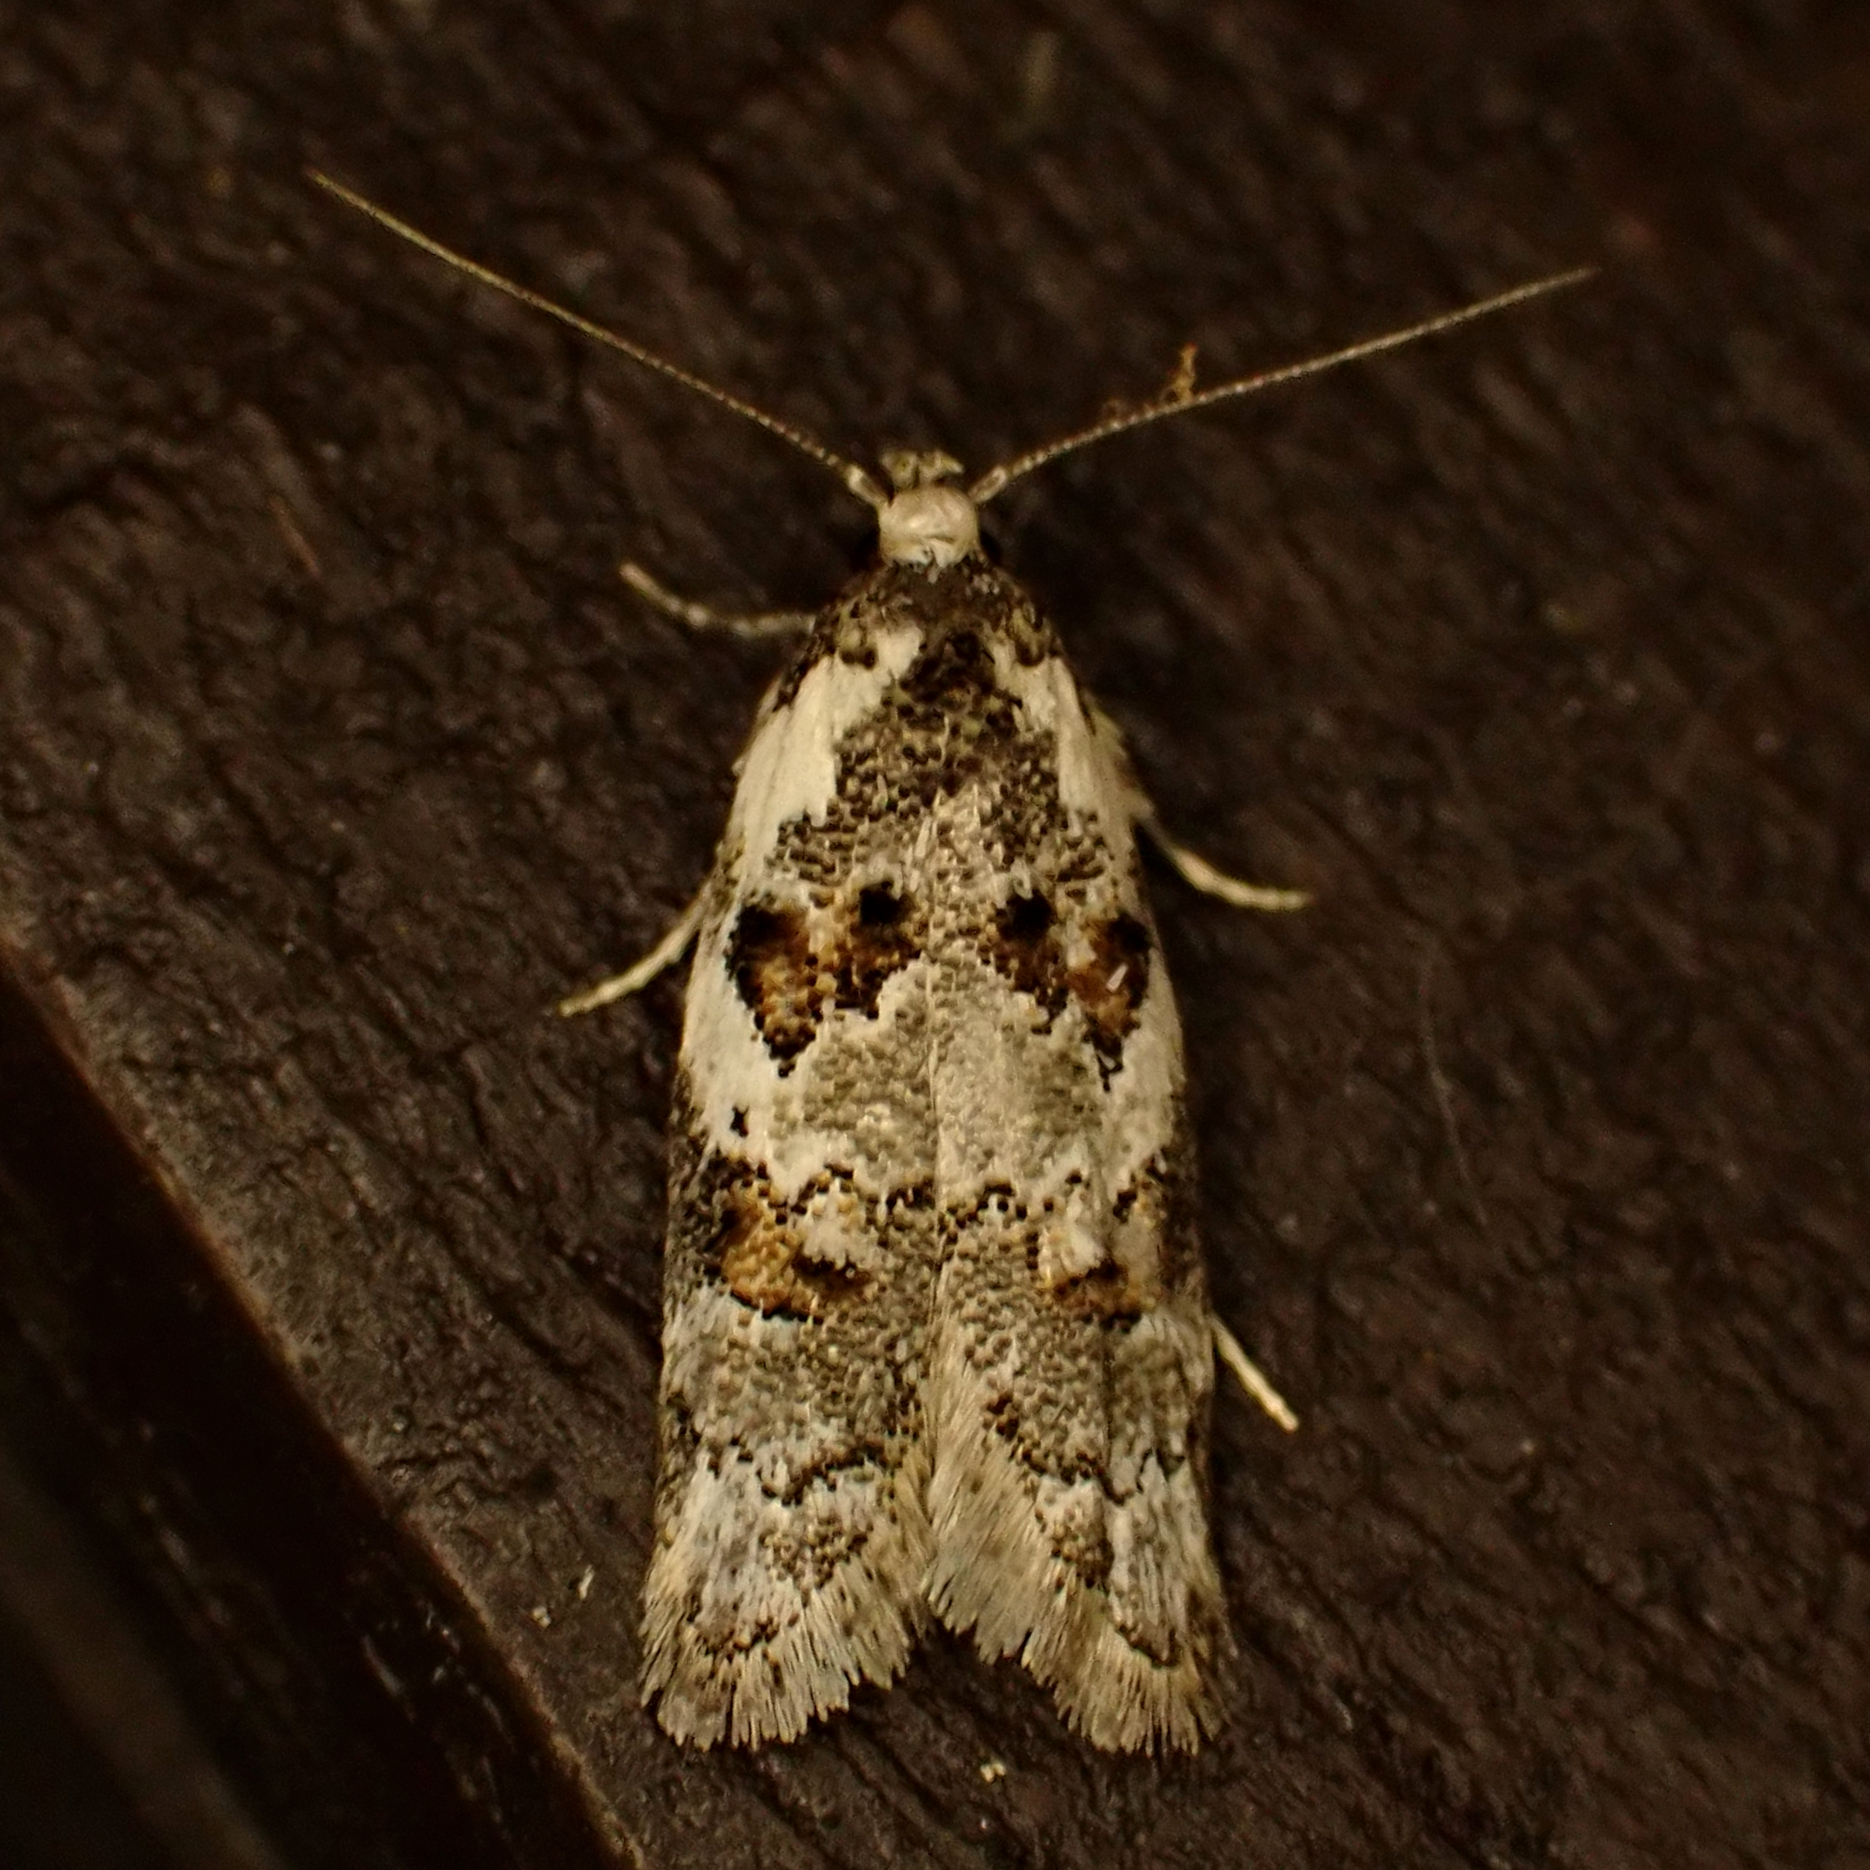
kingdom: Animalia
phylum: Arthropoda
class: Insecta
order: Lepidoptera
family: Oecophoridae
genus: Trachypepla
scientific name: Trachypepla galaxias
